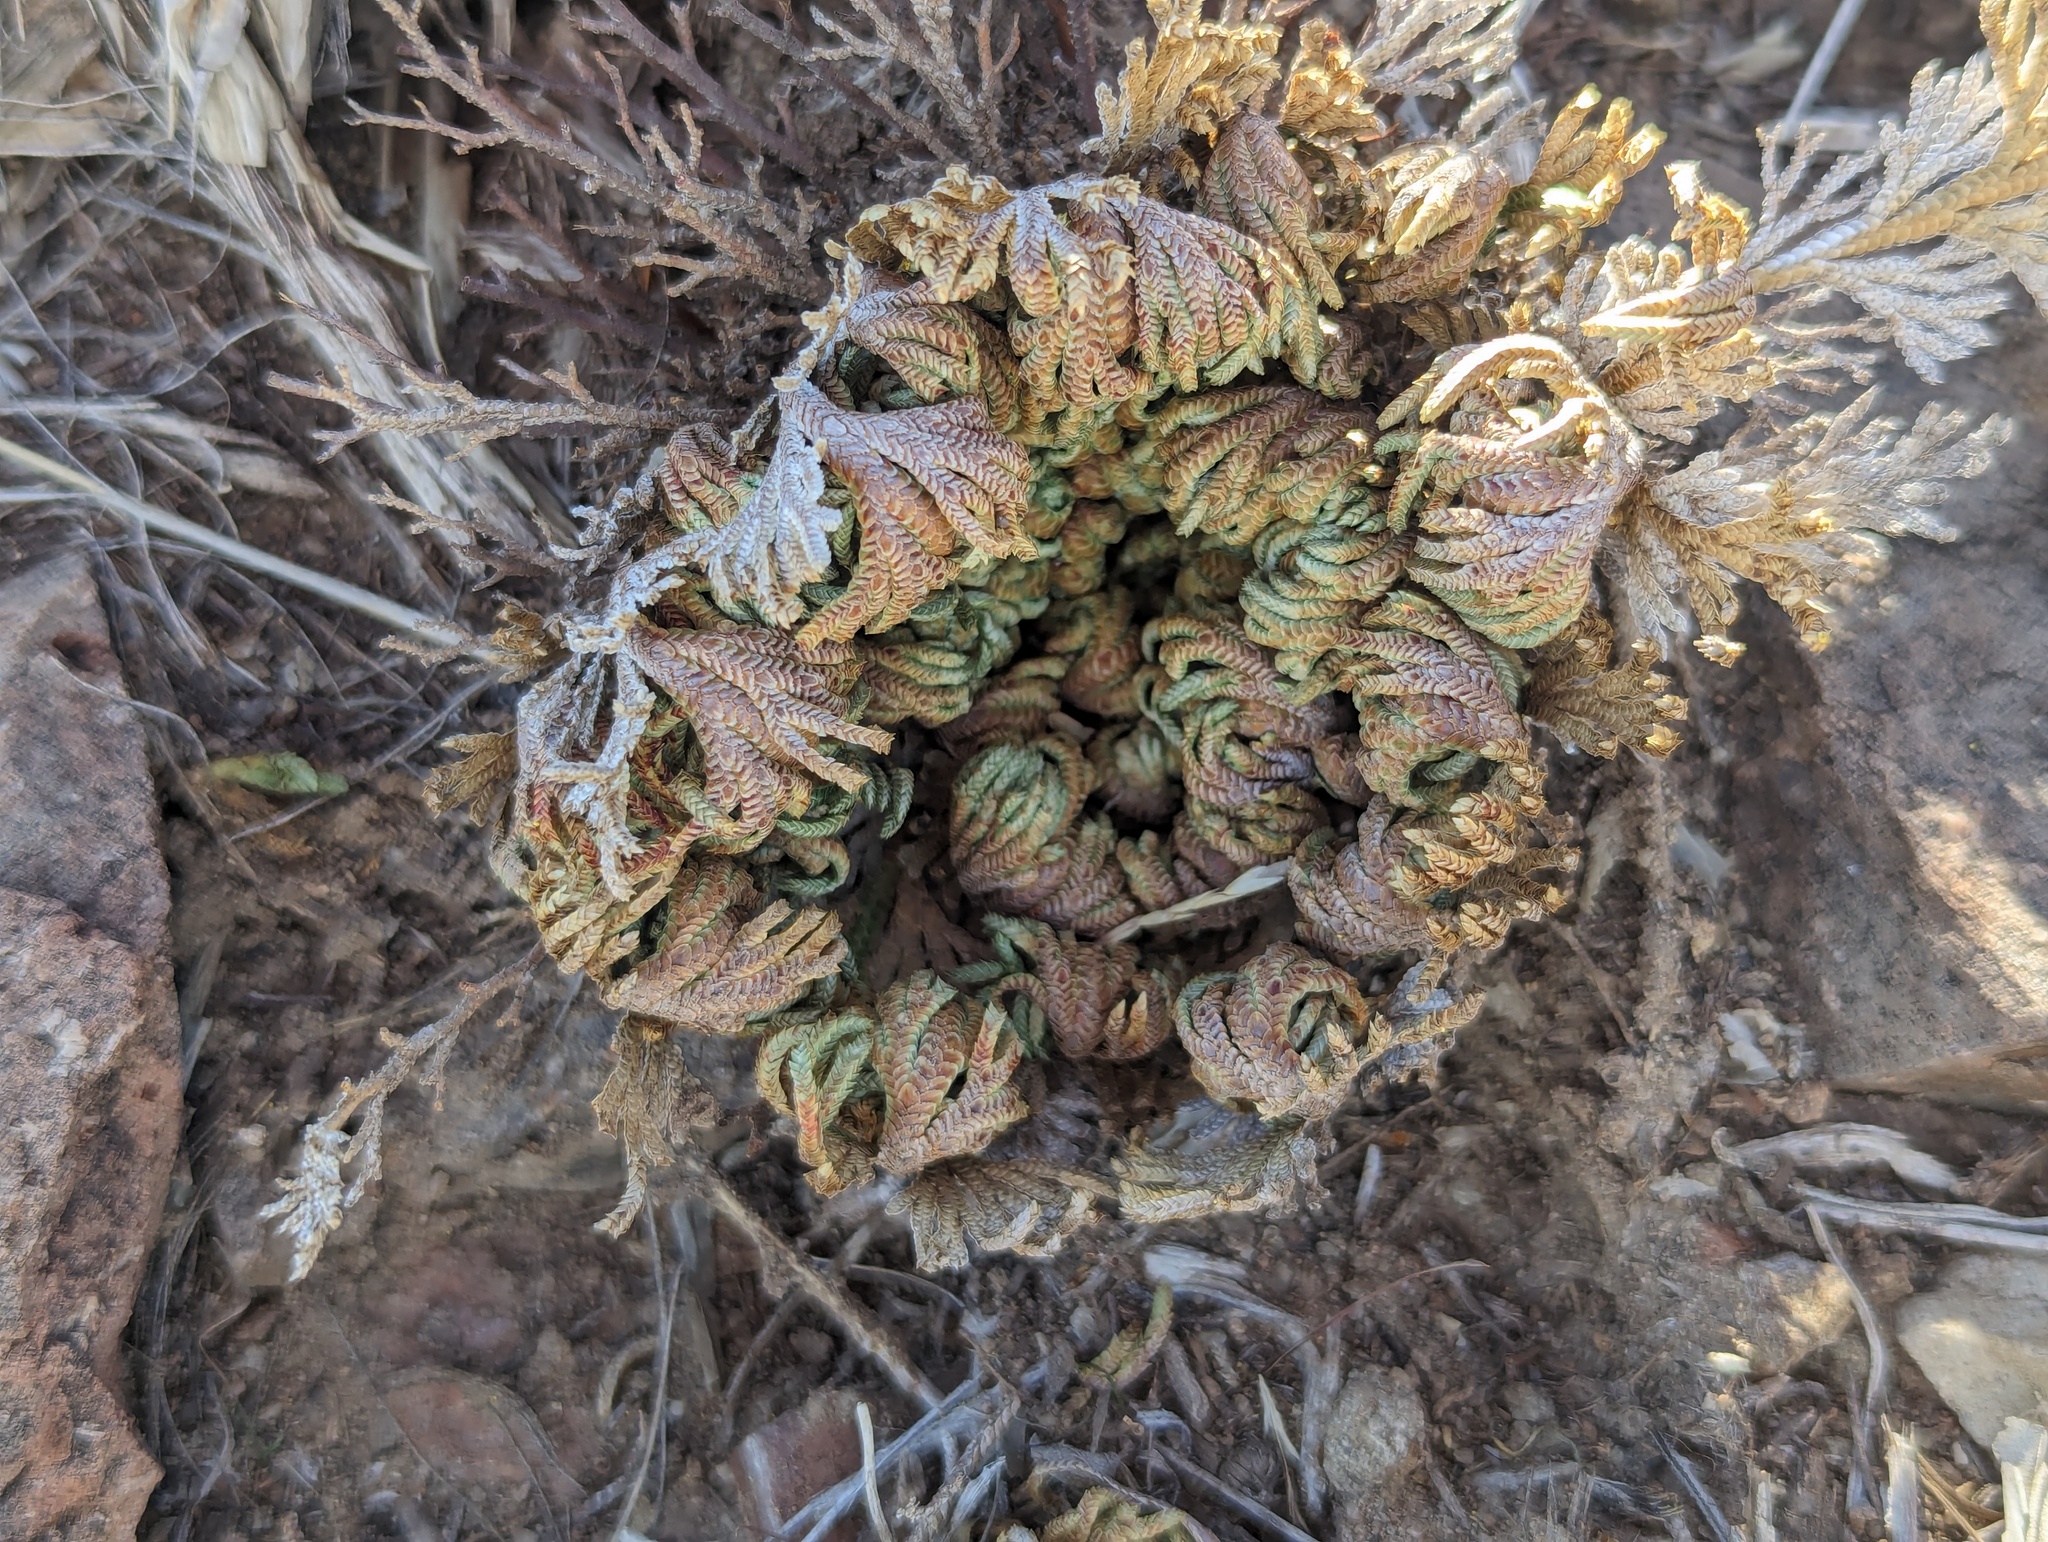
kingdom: Plantae
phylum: Tracheophyta
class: Lycopodiopsida
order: Selaginellales
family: Selaginellaceae
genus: Selaginella
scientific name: Selaginella lepidophylla
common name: Rose-of-jericho
